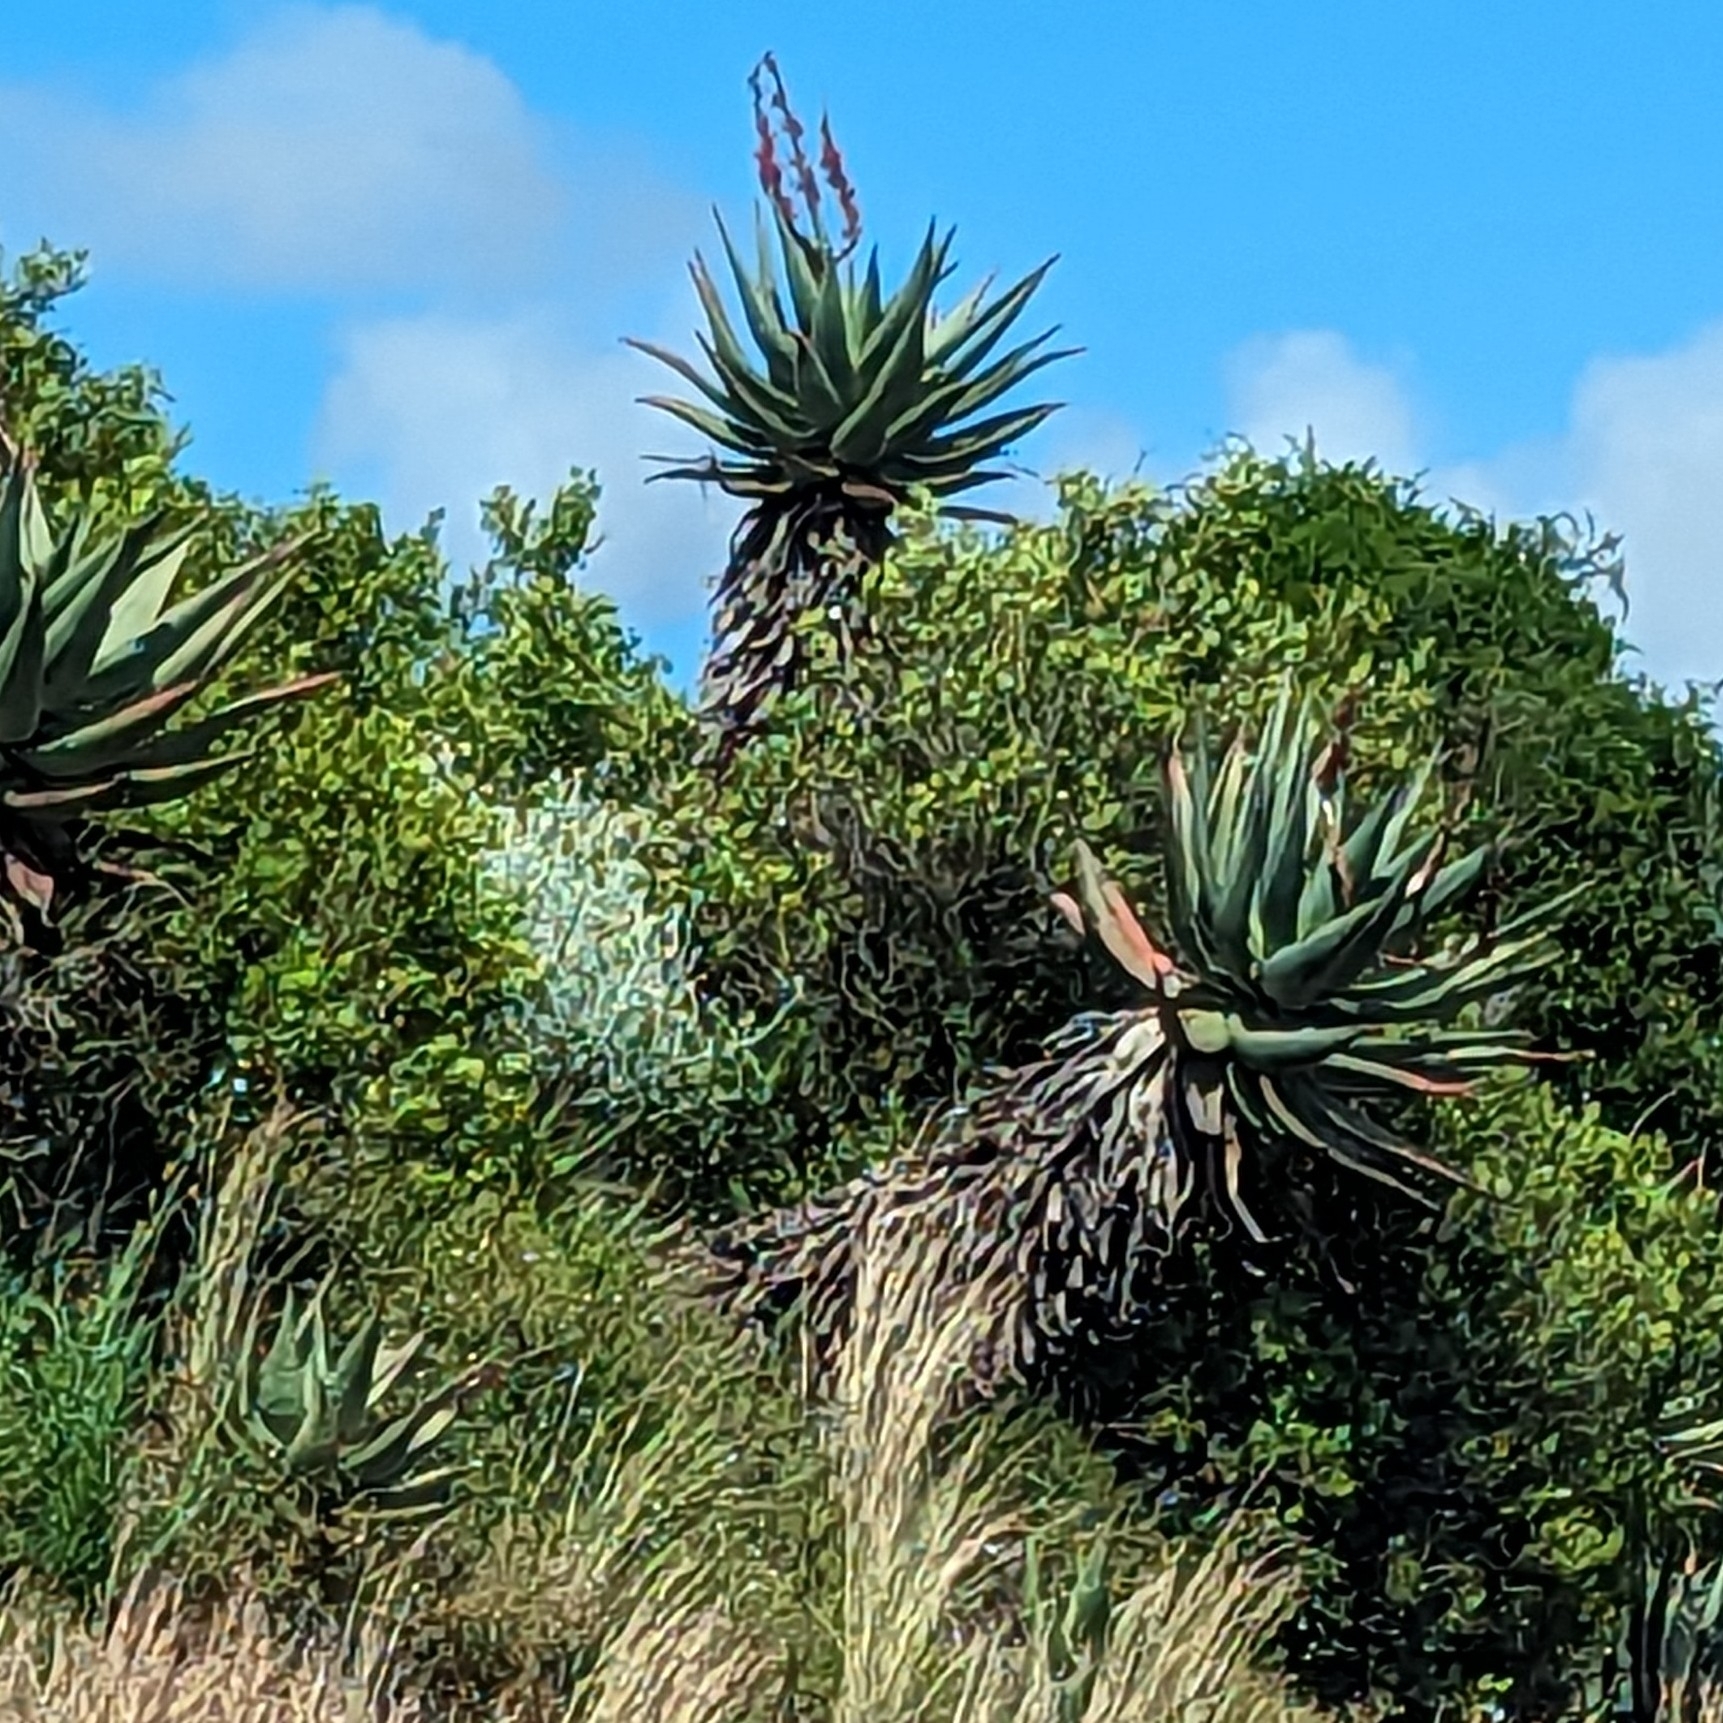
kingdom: Plantae
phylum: Tracheophyta
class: Liliopsida
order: Asparagales
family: Asphodelaceae
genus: Aloe
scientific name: Aloe ferox
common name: Bitter aloe
